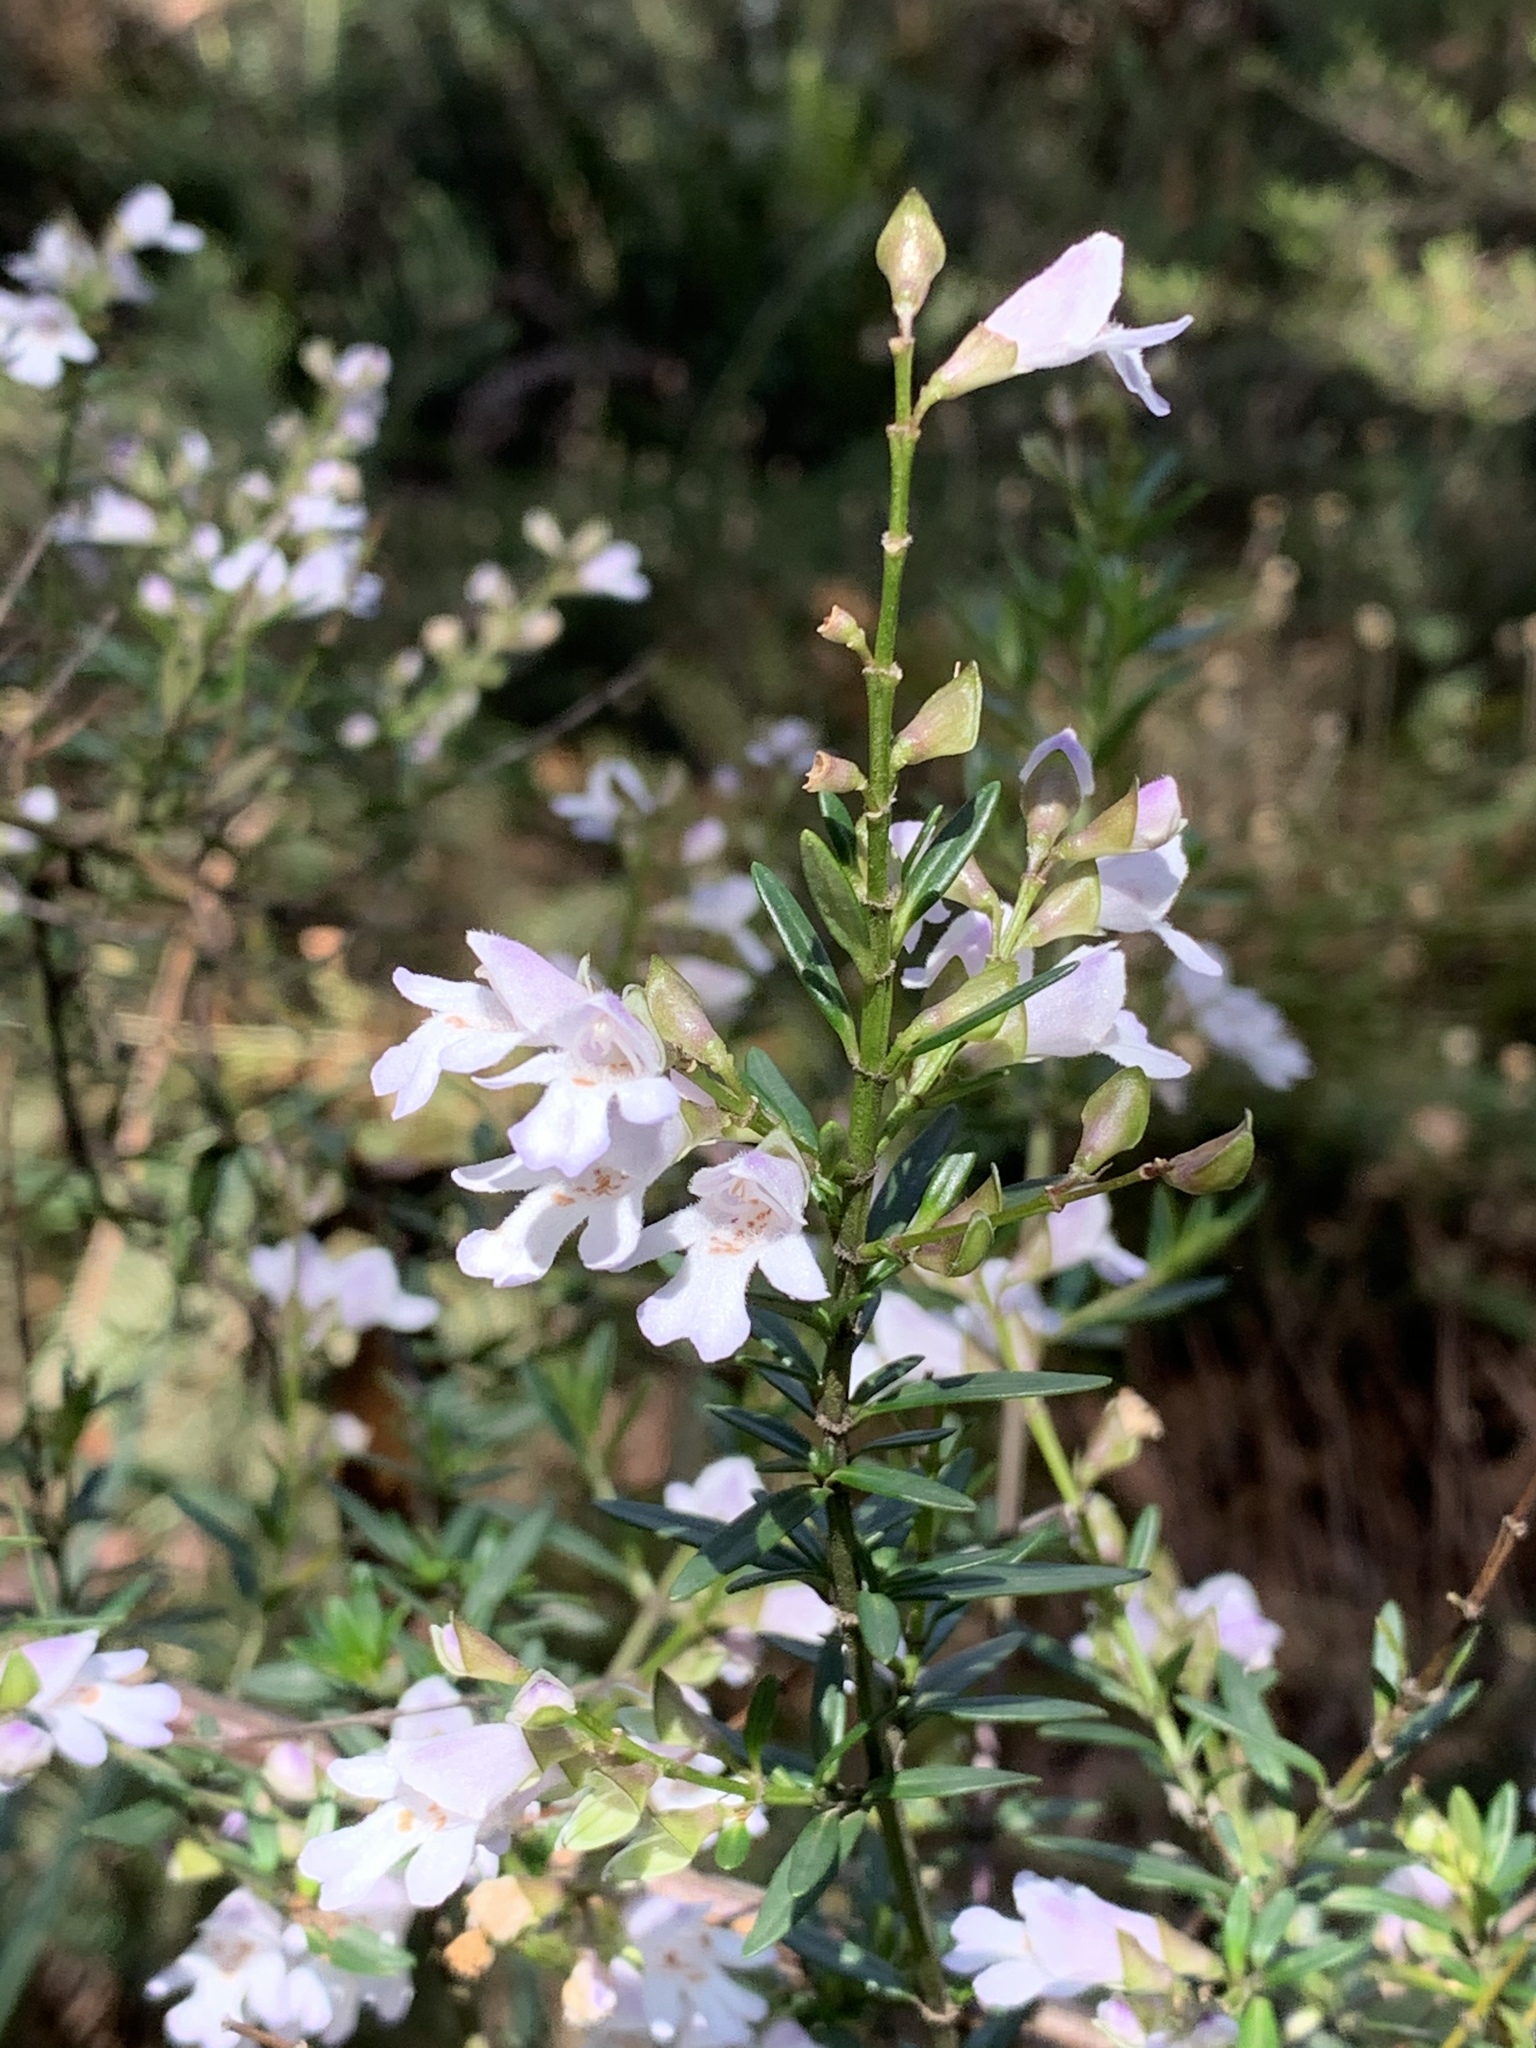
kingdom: Plantae
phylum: Tracheophyta
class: Magnoliopsida
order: Lamiales
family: Lamiaceae
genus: Prostanthera
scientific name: Prostanthera linearis
